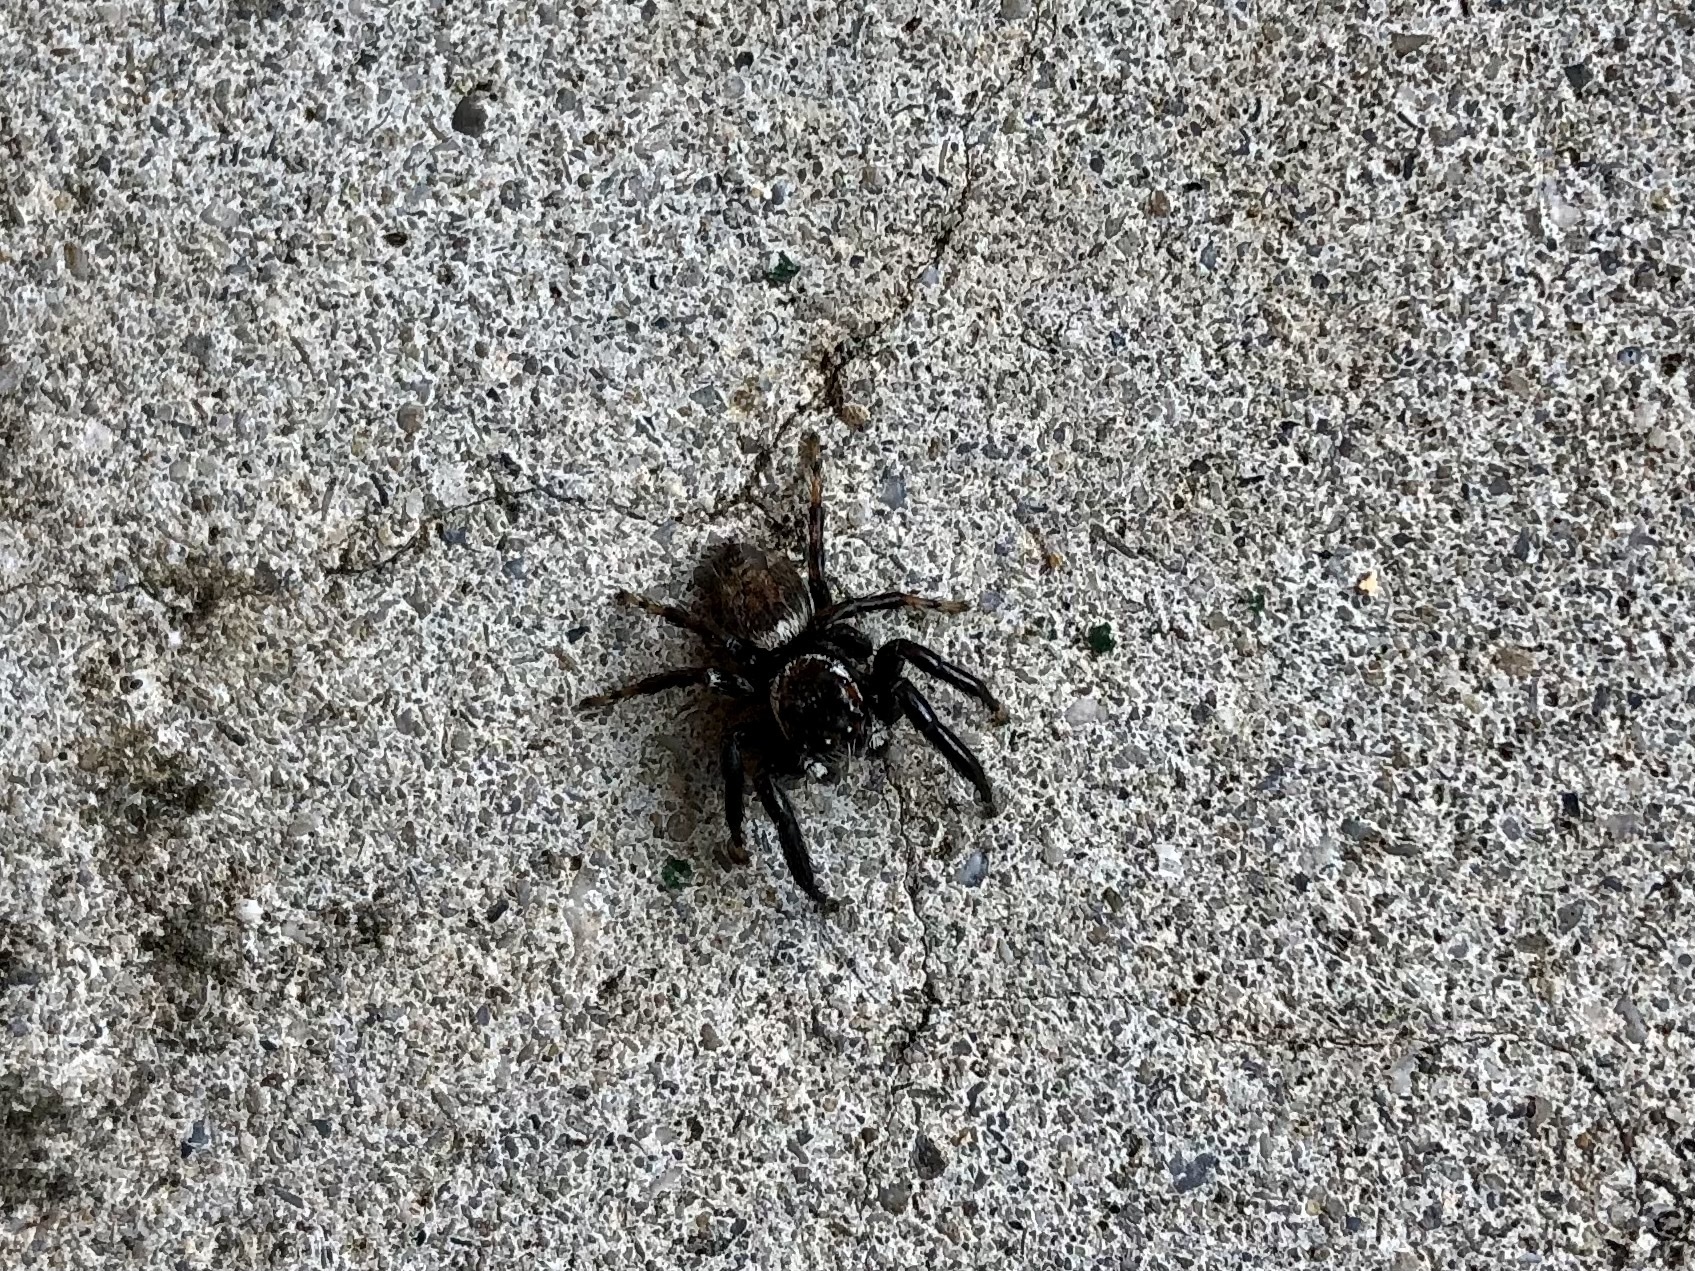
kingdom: Animalia
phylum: Arthropoda
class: Arachnida
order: Araneae
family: Salticidae
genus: Evarcha
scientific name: Evarcha jucunda
